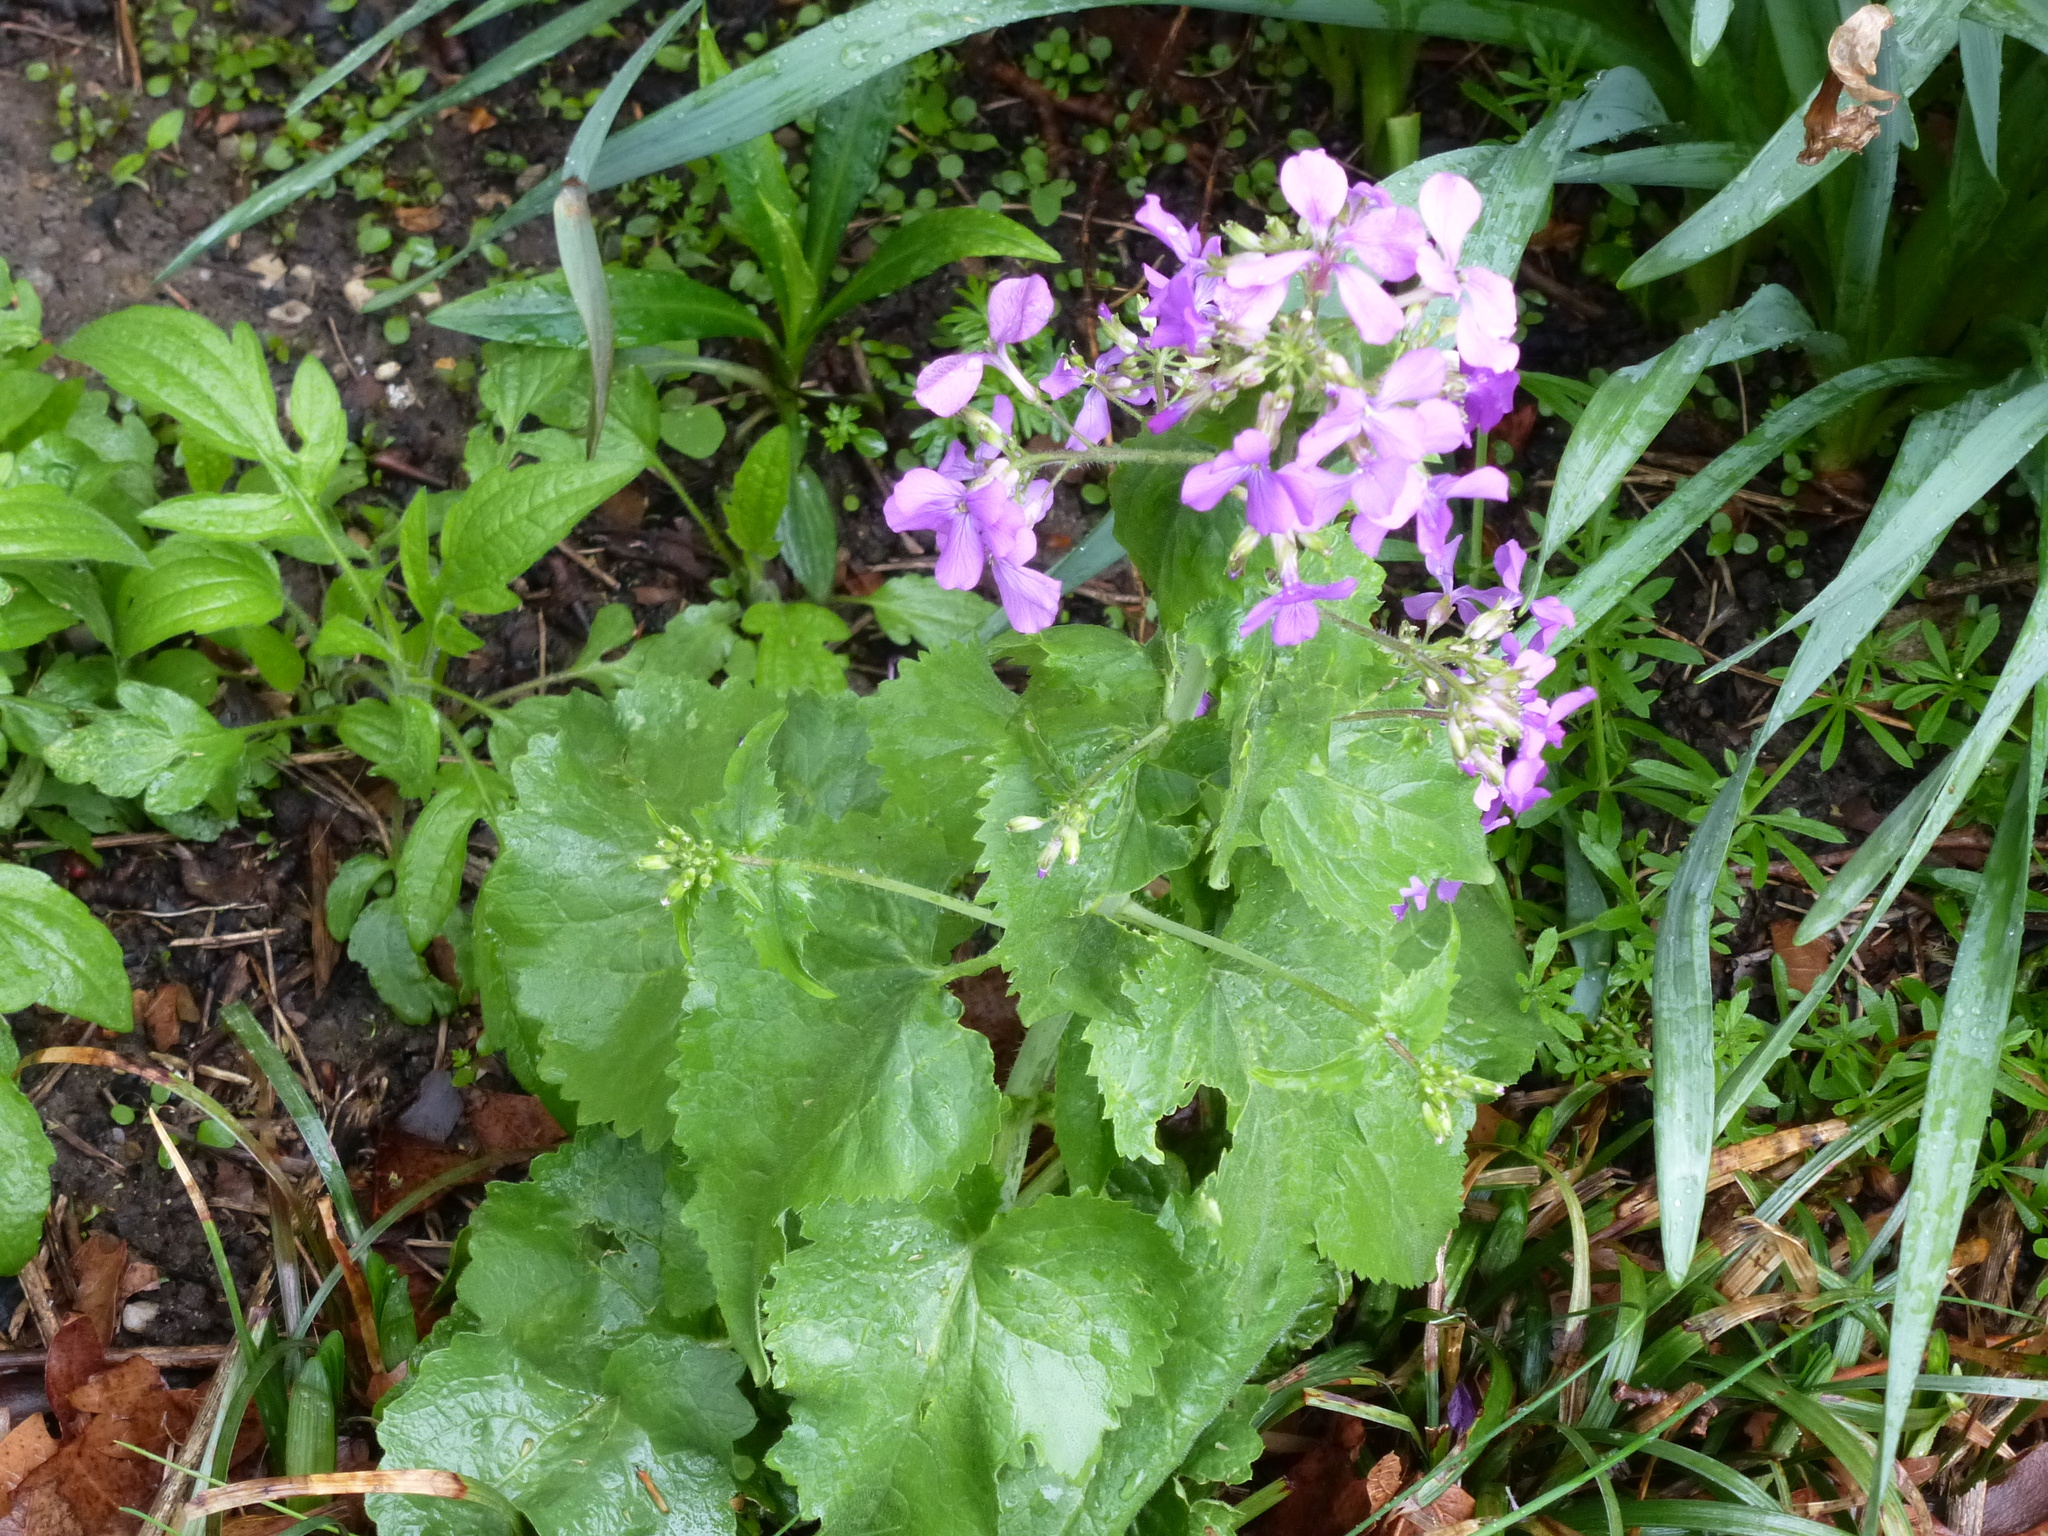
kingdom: Plantae
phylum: Tracheophyta
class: Magnoliopsida
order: Brassicales
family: Brassicaceae
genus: Lunaria
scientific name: Lunaria annua
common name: Honesty
